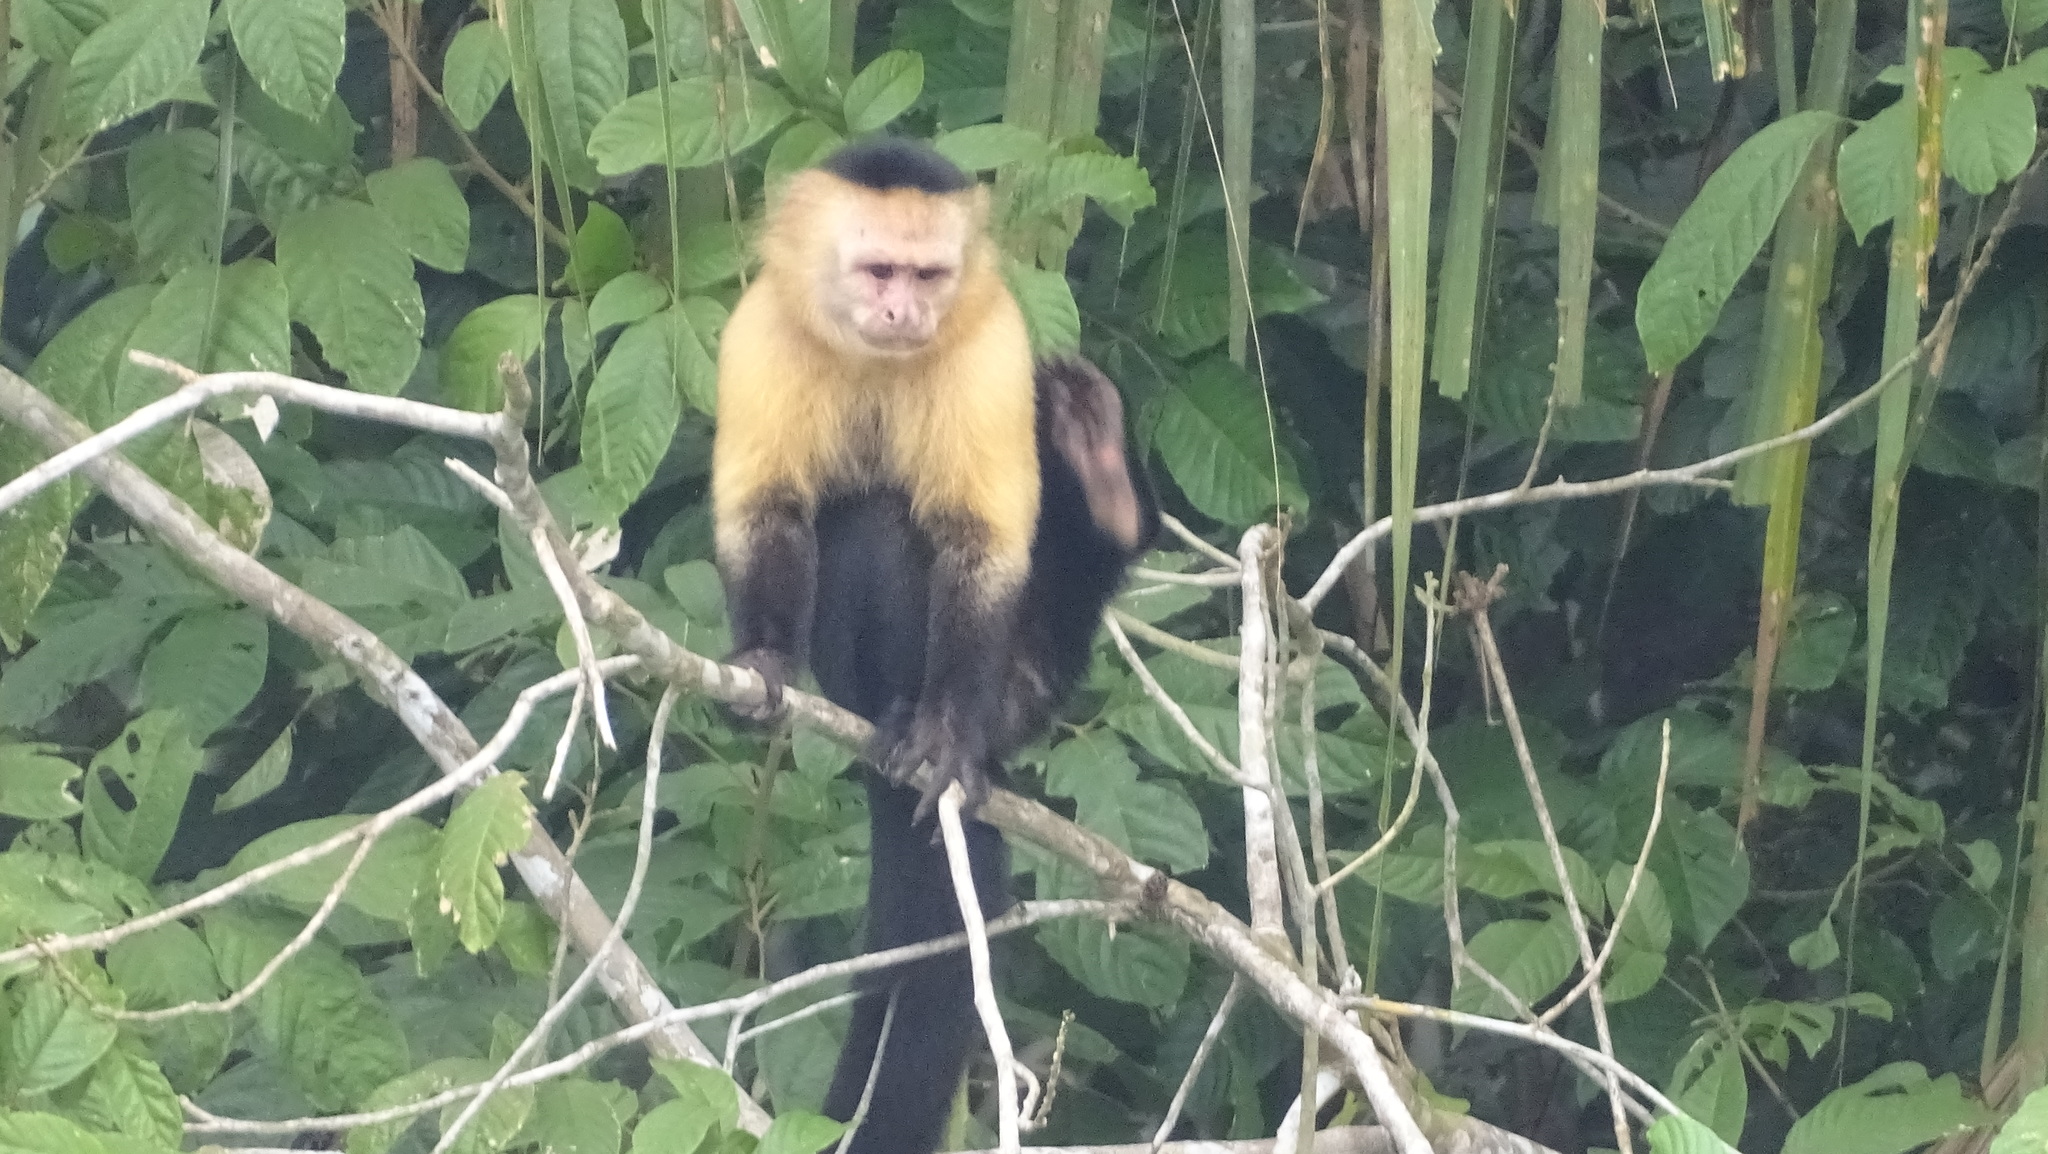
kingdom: Animalia
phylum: Chordata
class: Mammalia
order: Primates
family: Cebidae
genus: Cebus
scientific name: Cebus imitator
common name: Panamanian white-faced capuchin
